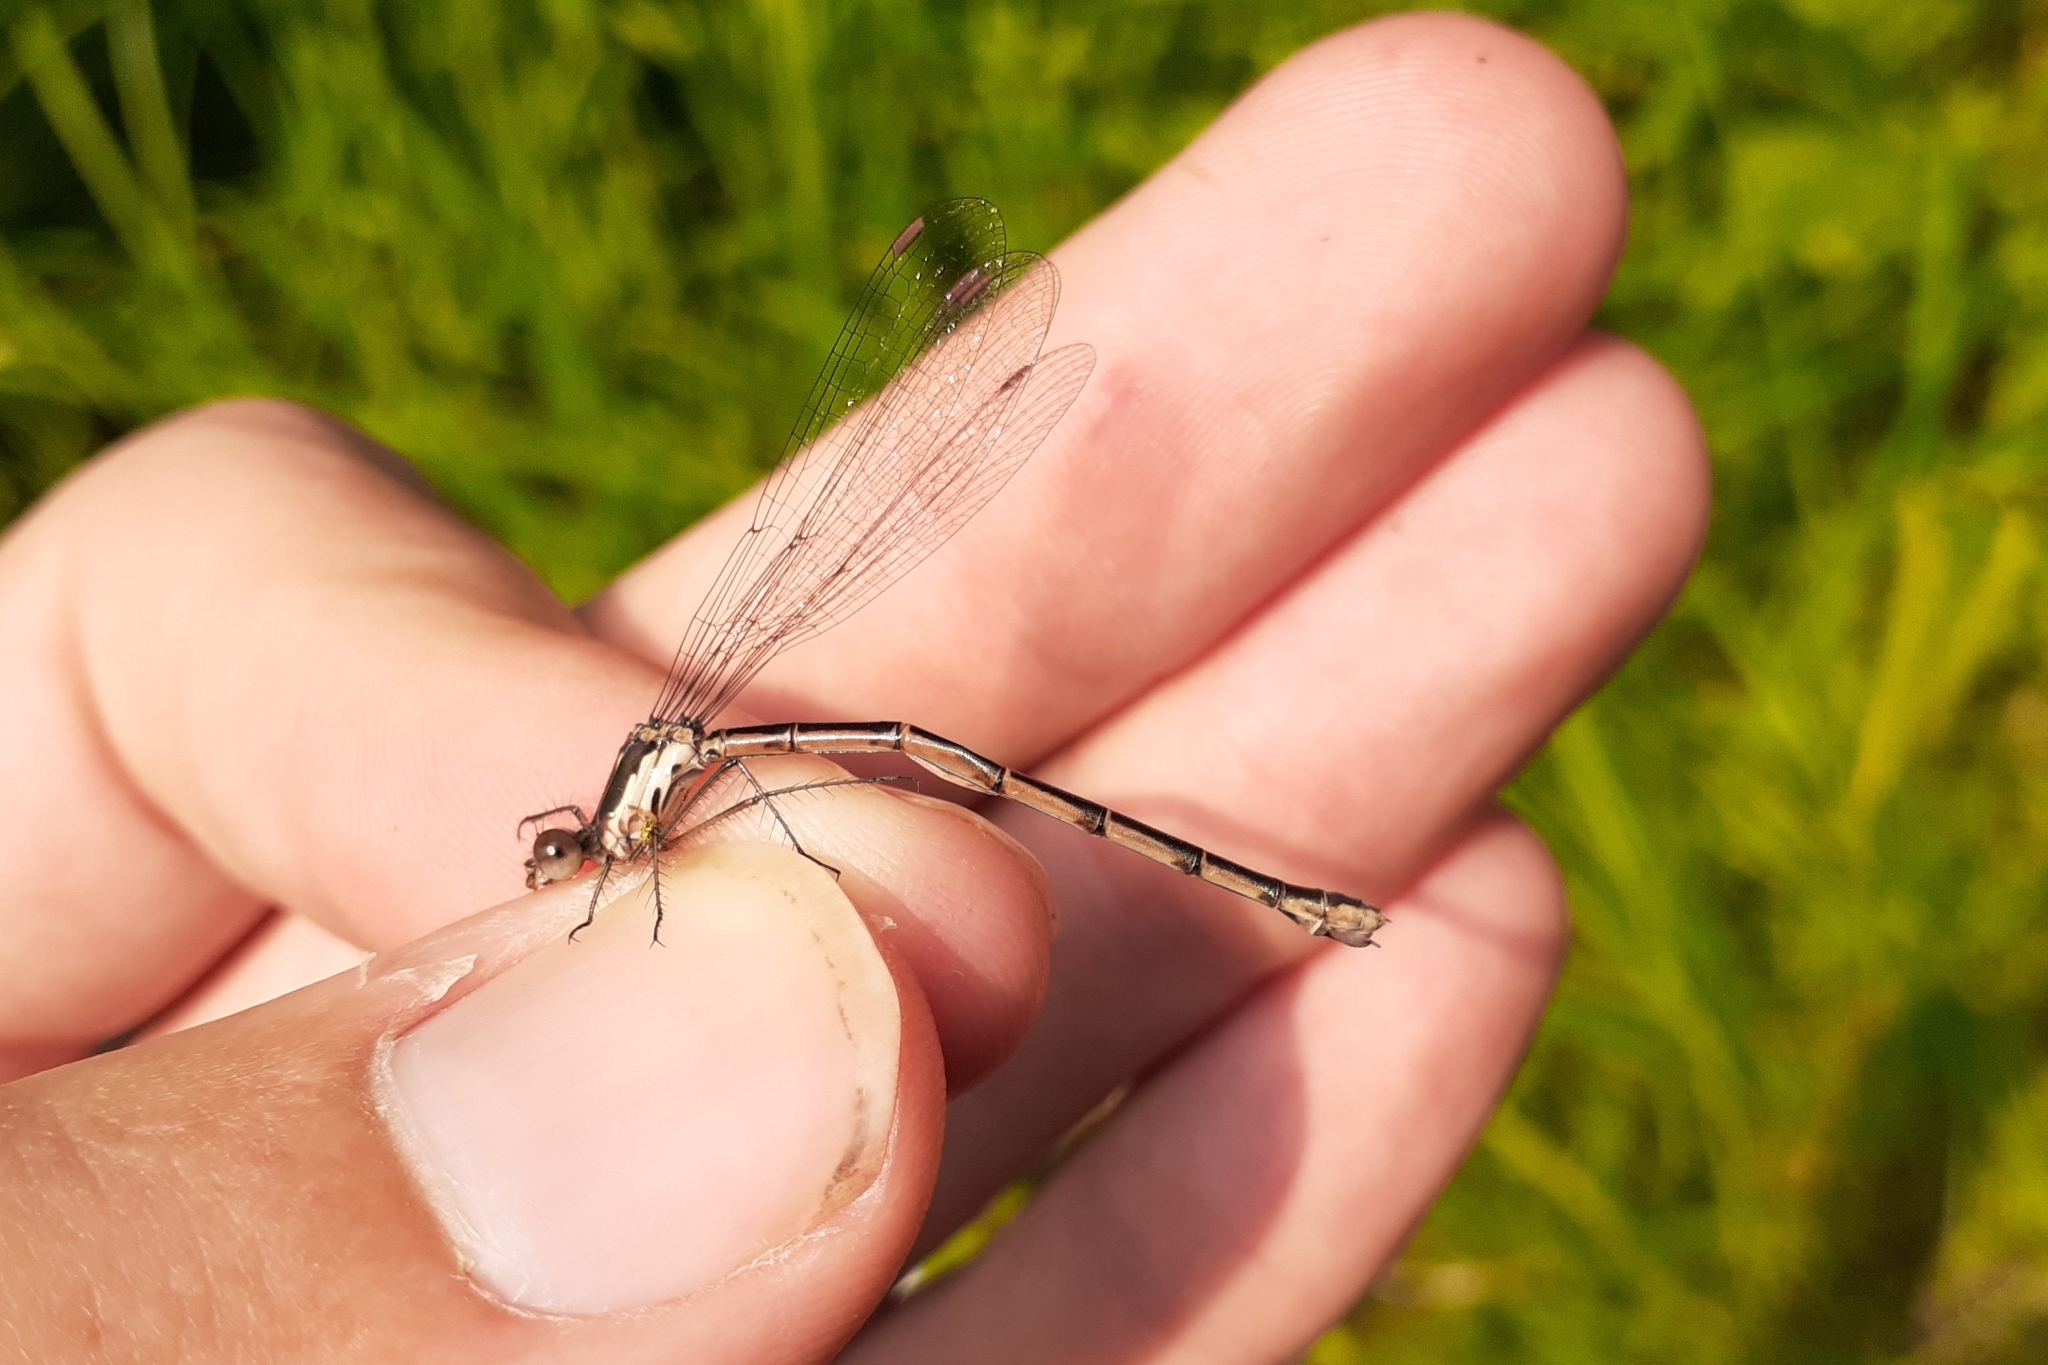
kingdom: Animalia
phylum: Arthropoda
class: Insecta
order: Odonata
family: Lestidae
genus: Lestes
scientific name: Lestes congener
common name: Spotted spreadwing
